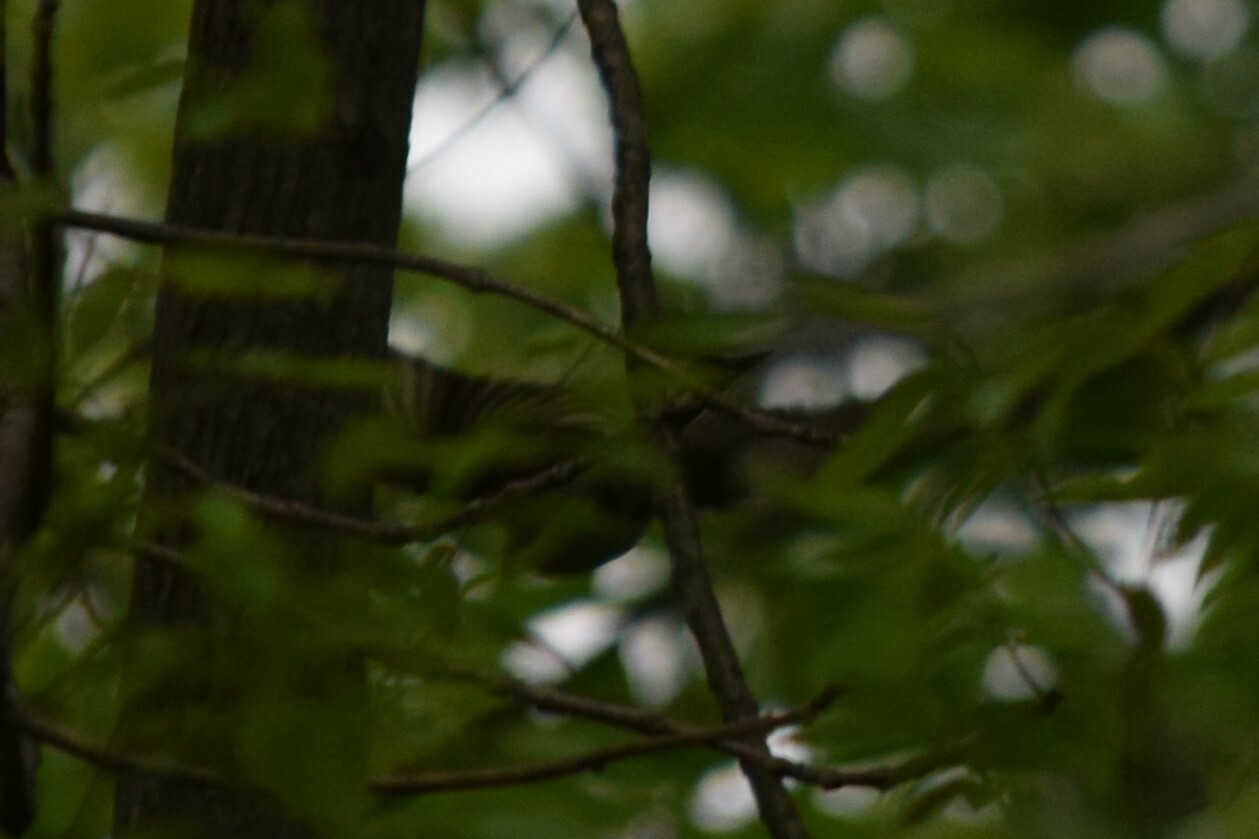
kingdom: Animalia
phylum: Chordata
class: Aves
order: Passeriformes
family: Tyrannidae
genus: Sayornis
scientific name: Sayornis phoebe
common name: Eastern phoebe
